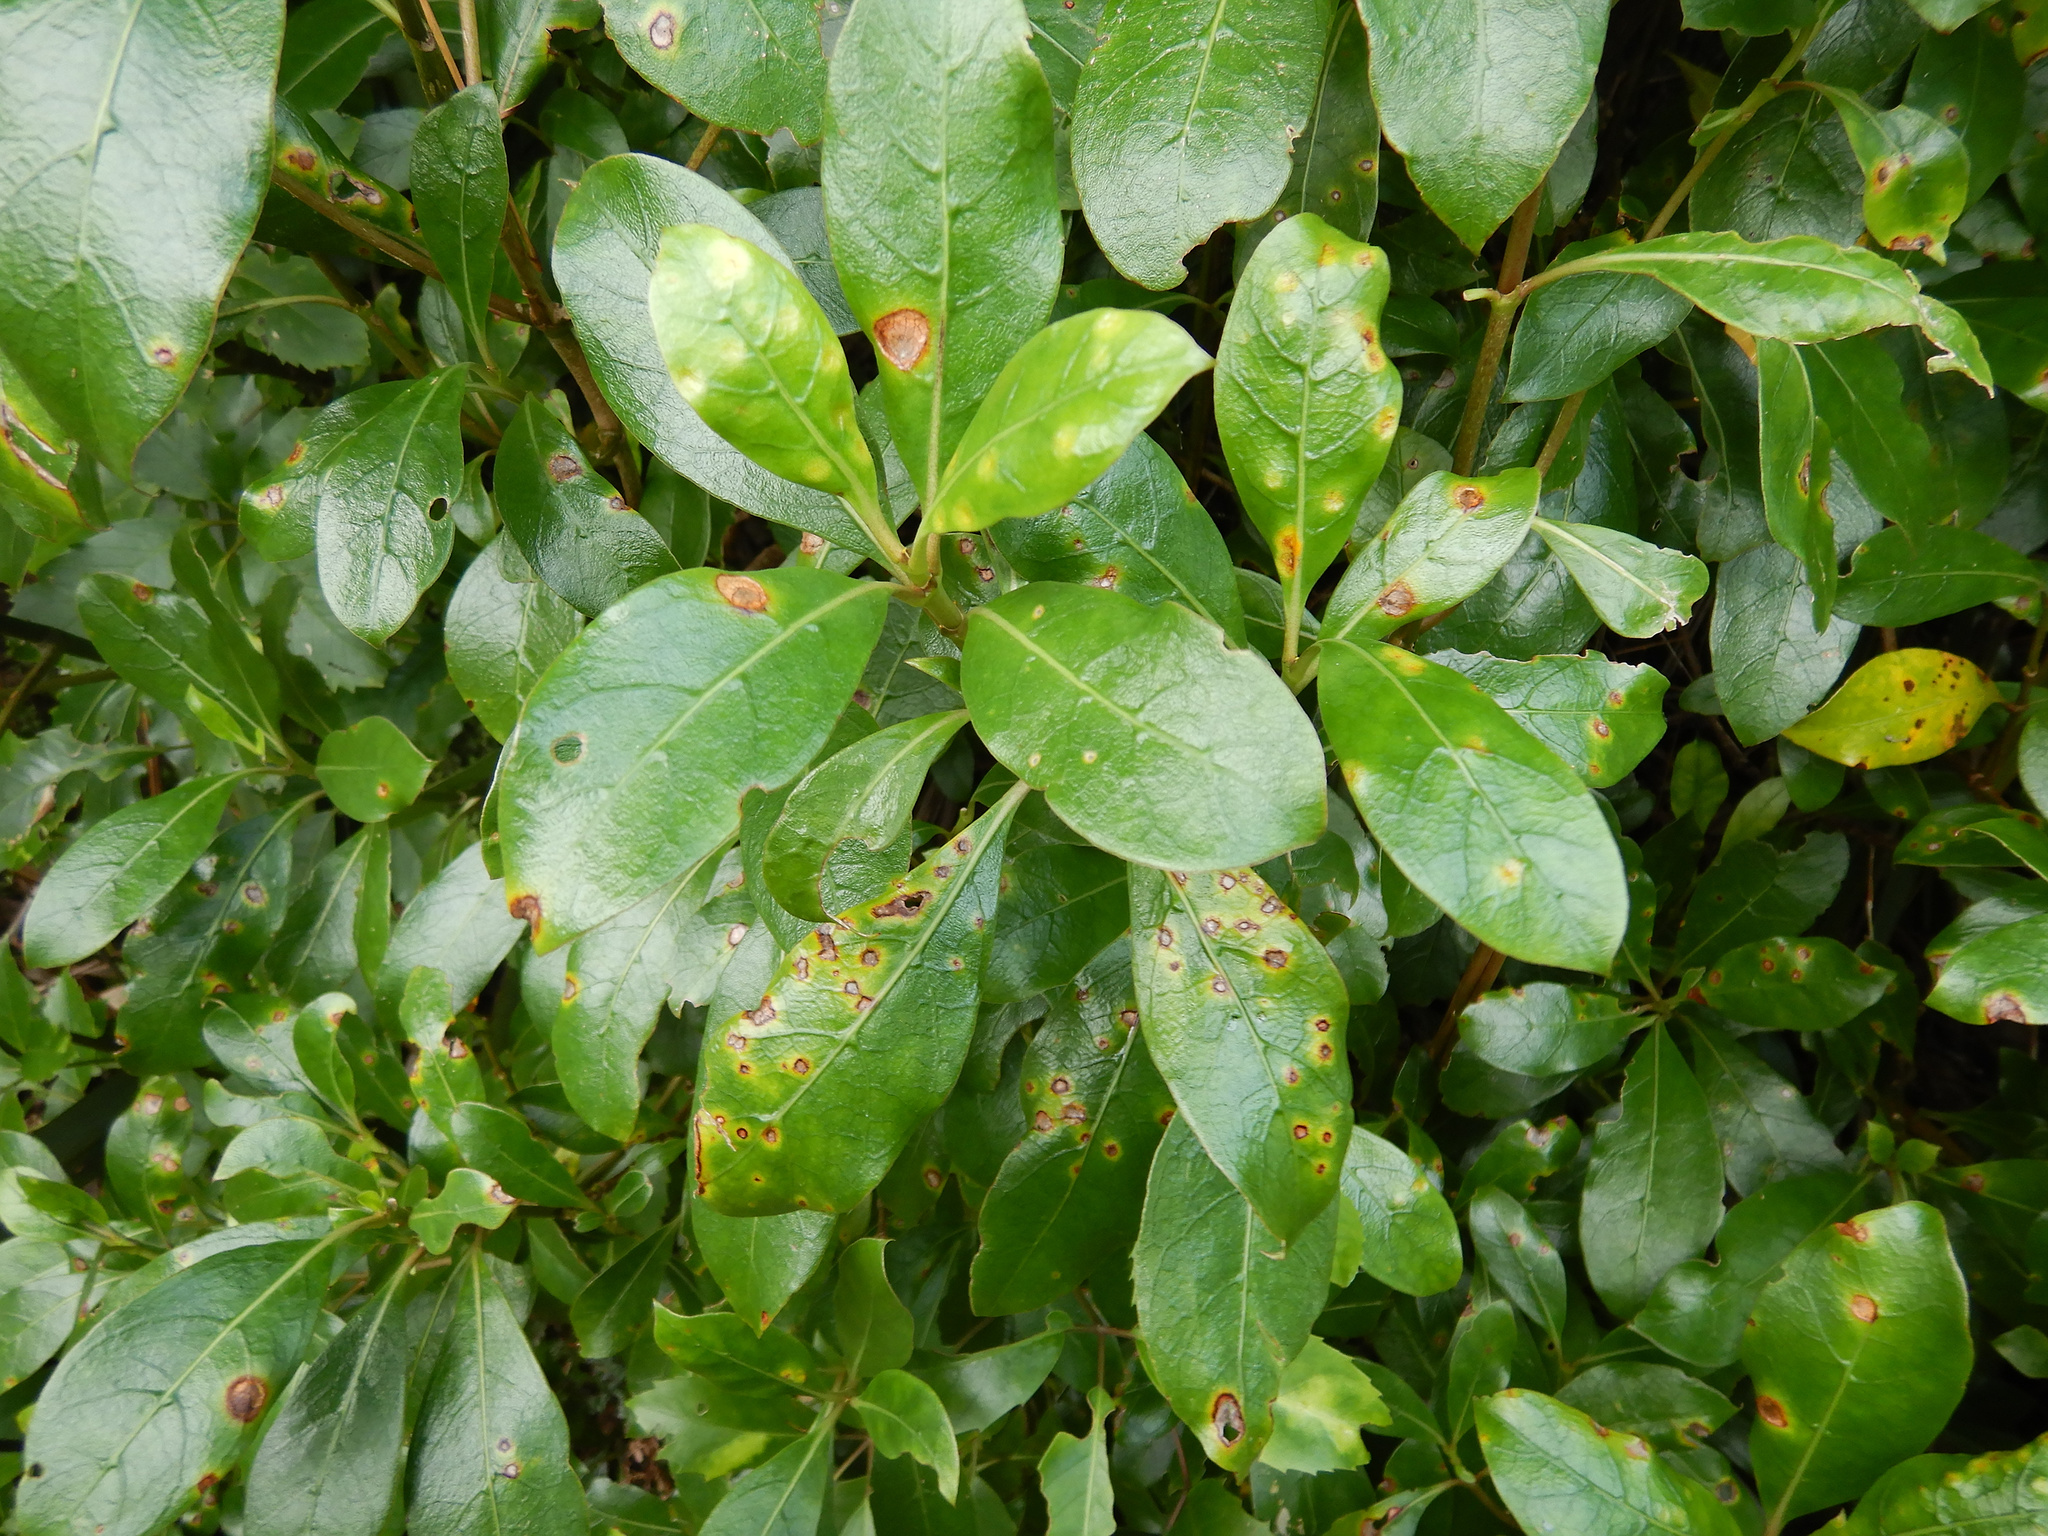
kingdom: Plantae
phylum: Tracheophyta
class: Magnoliopsida
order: Gentianales
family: Rubiaceae
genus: Coprosma
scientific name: Coprosma lucida
